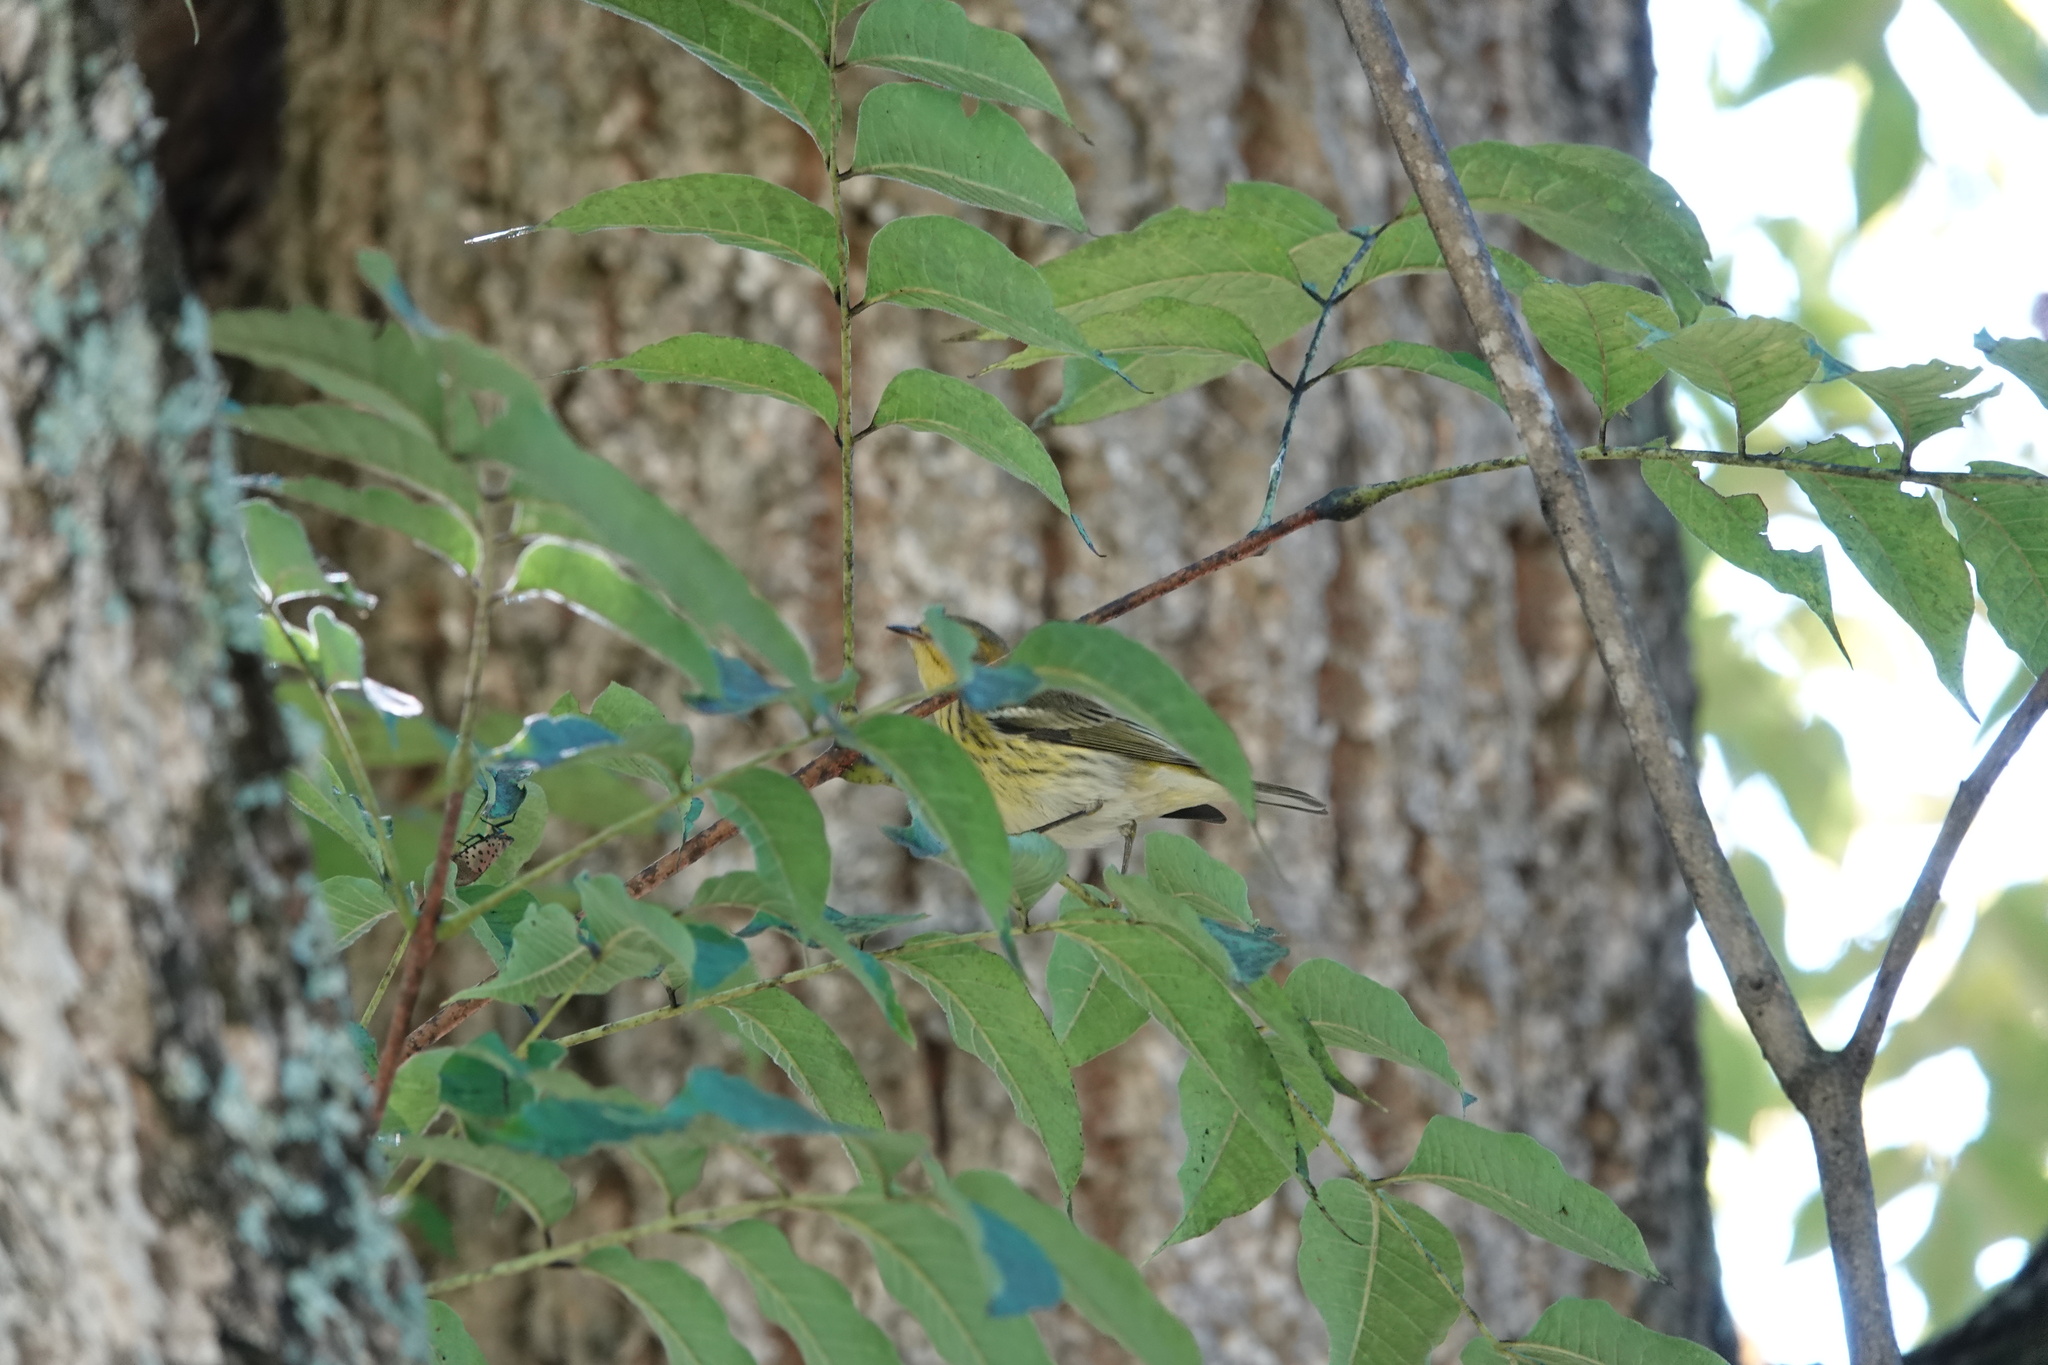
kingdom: Animalia
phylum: Chordata
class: Aves
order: Passeriformes
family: Parulidae
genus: Setophaga
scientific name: Setophaga tigrina
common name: Cape may warbler
